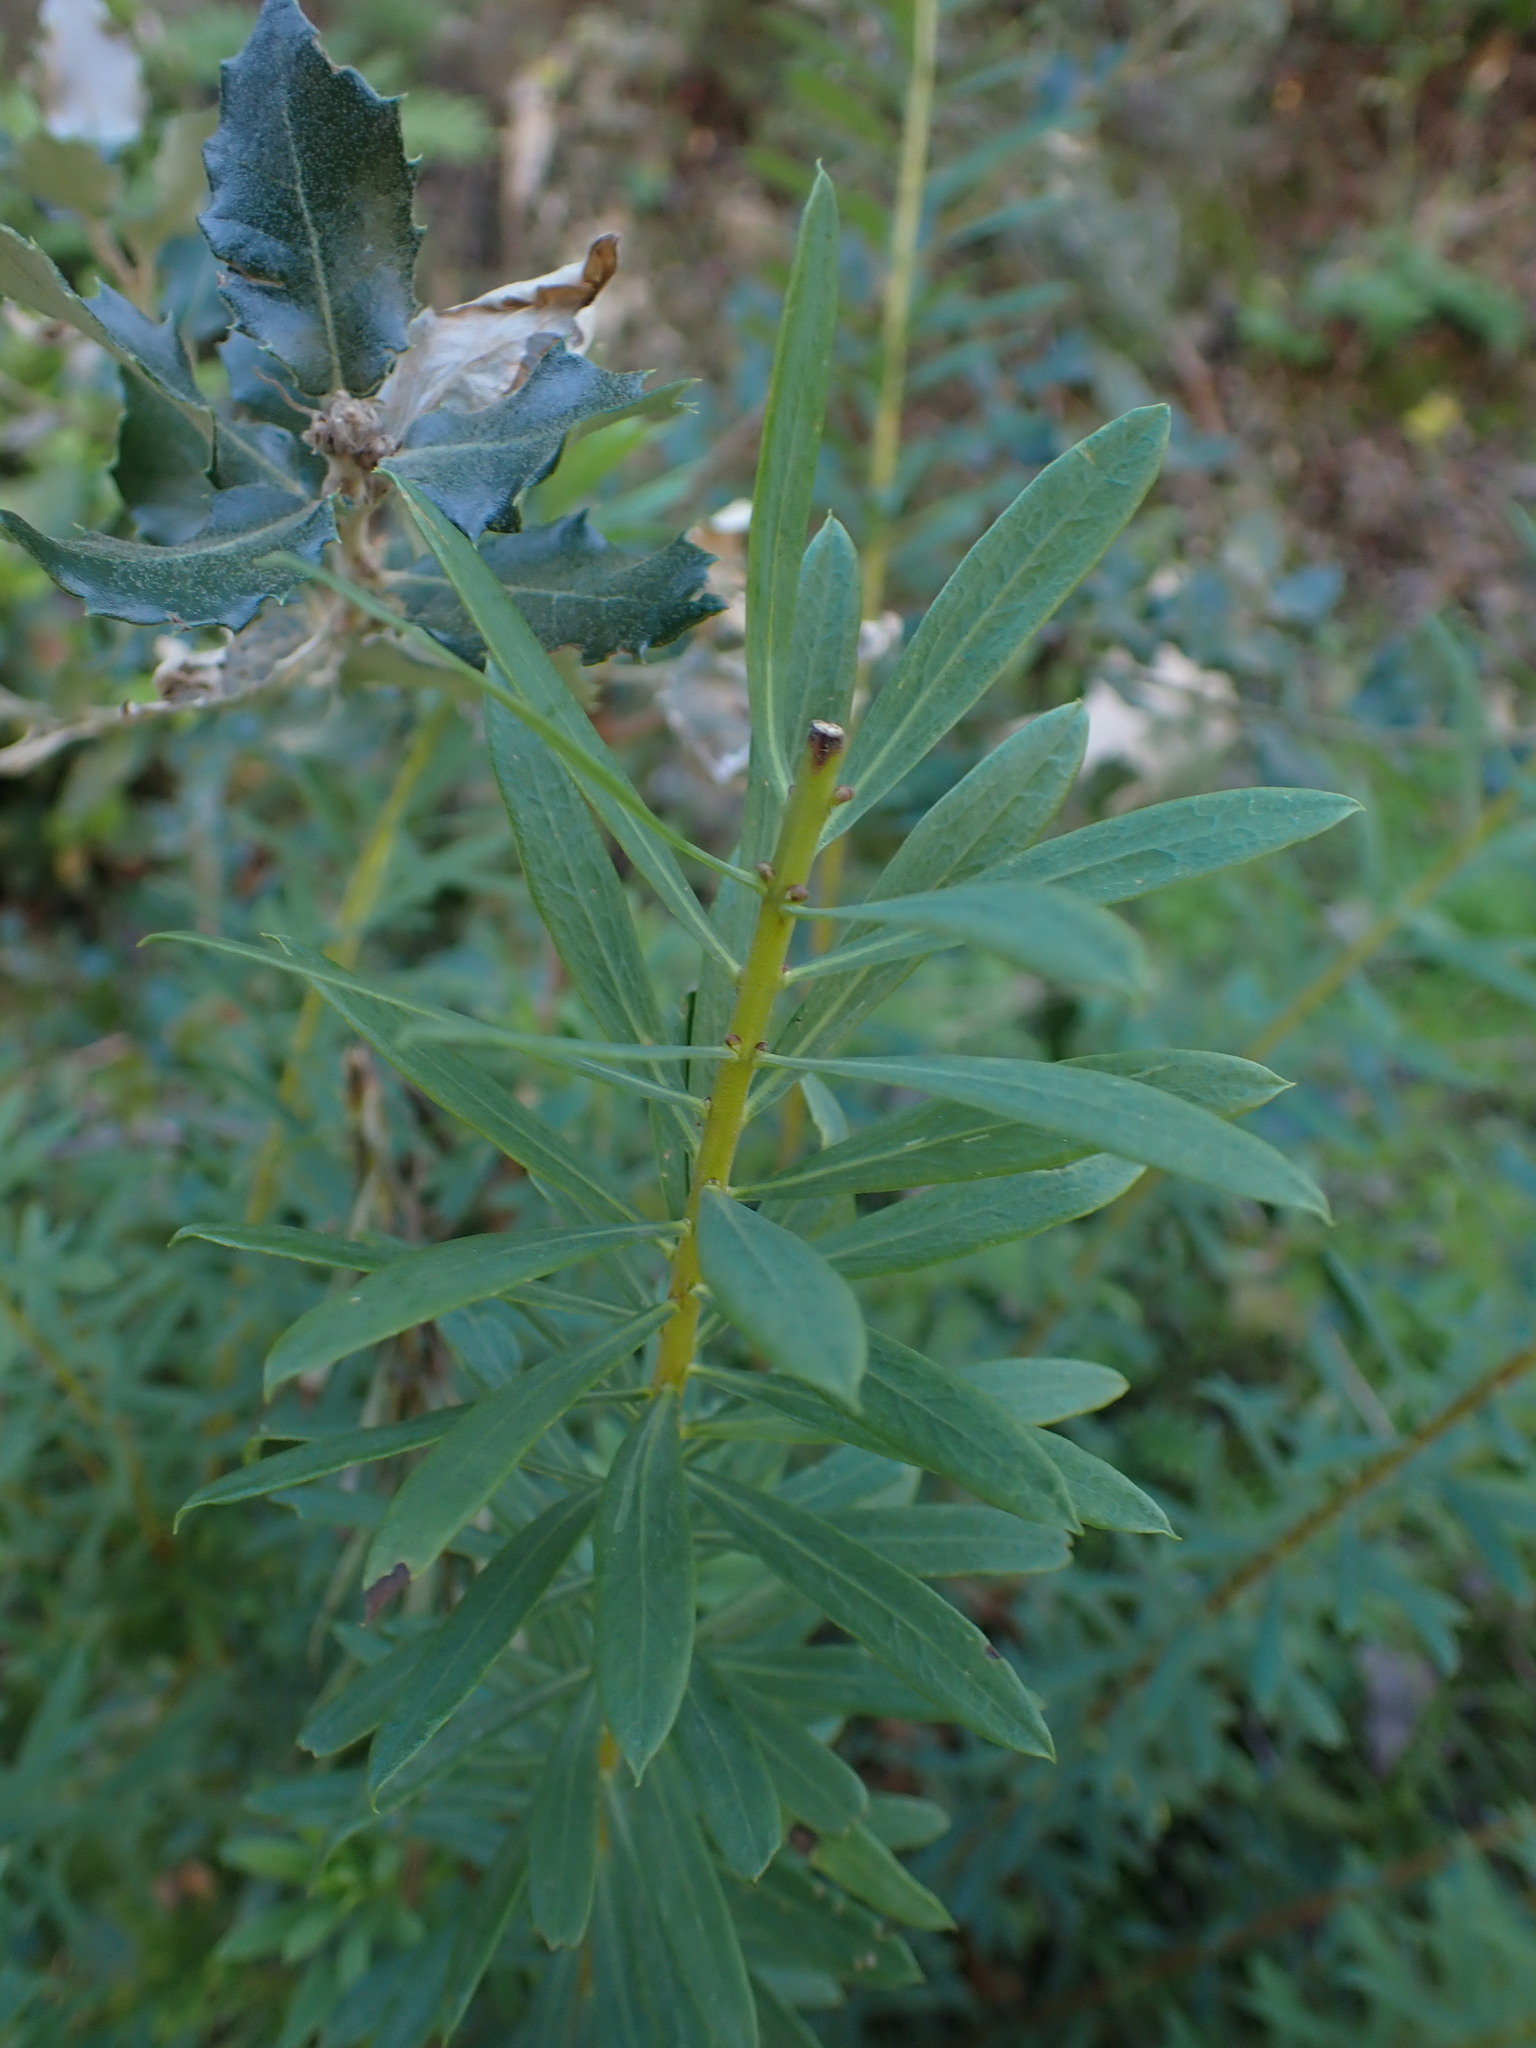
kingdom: Plantae
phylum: Tracheophyta
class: Magnoliopsida
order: Malvales
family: Thymelaeaceae
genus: Daphne
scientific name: Daphne gnidium
